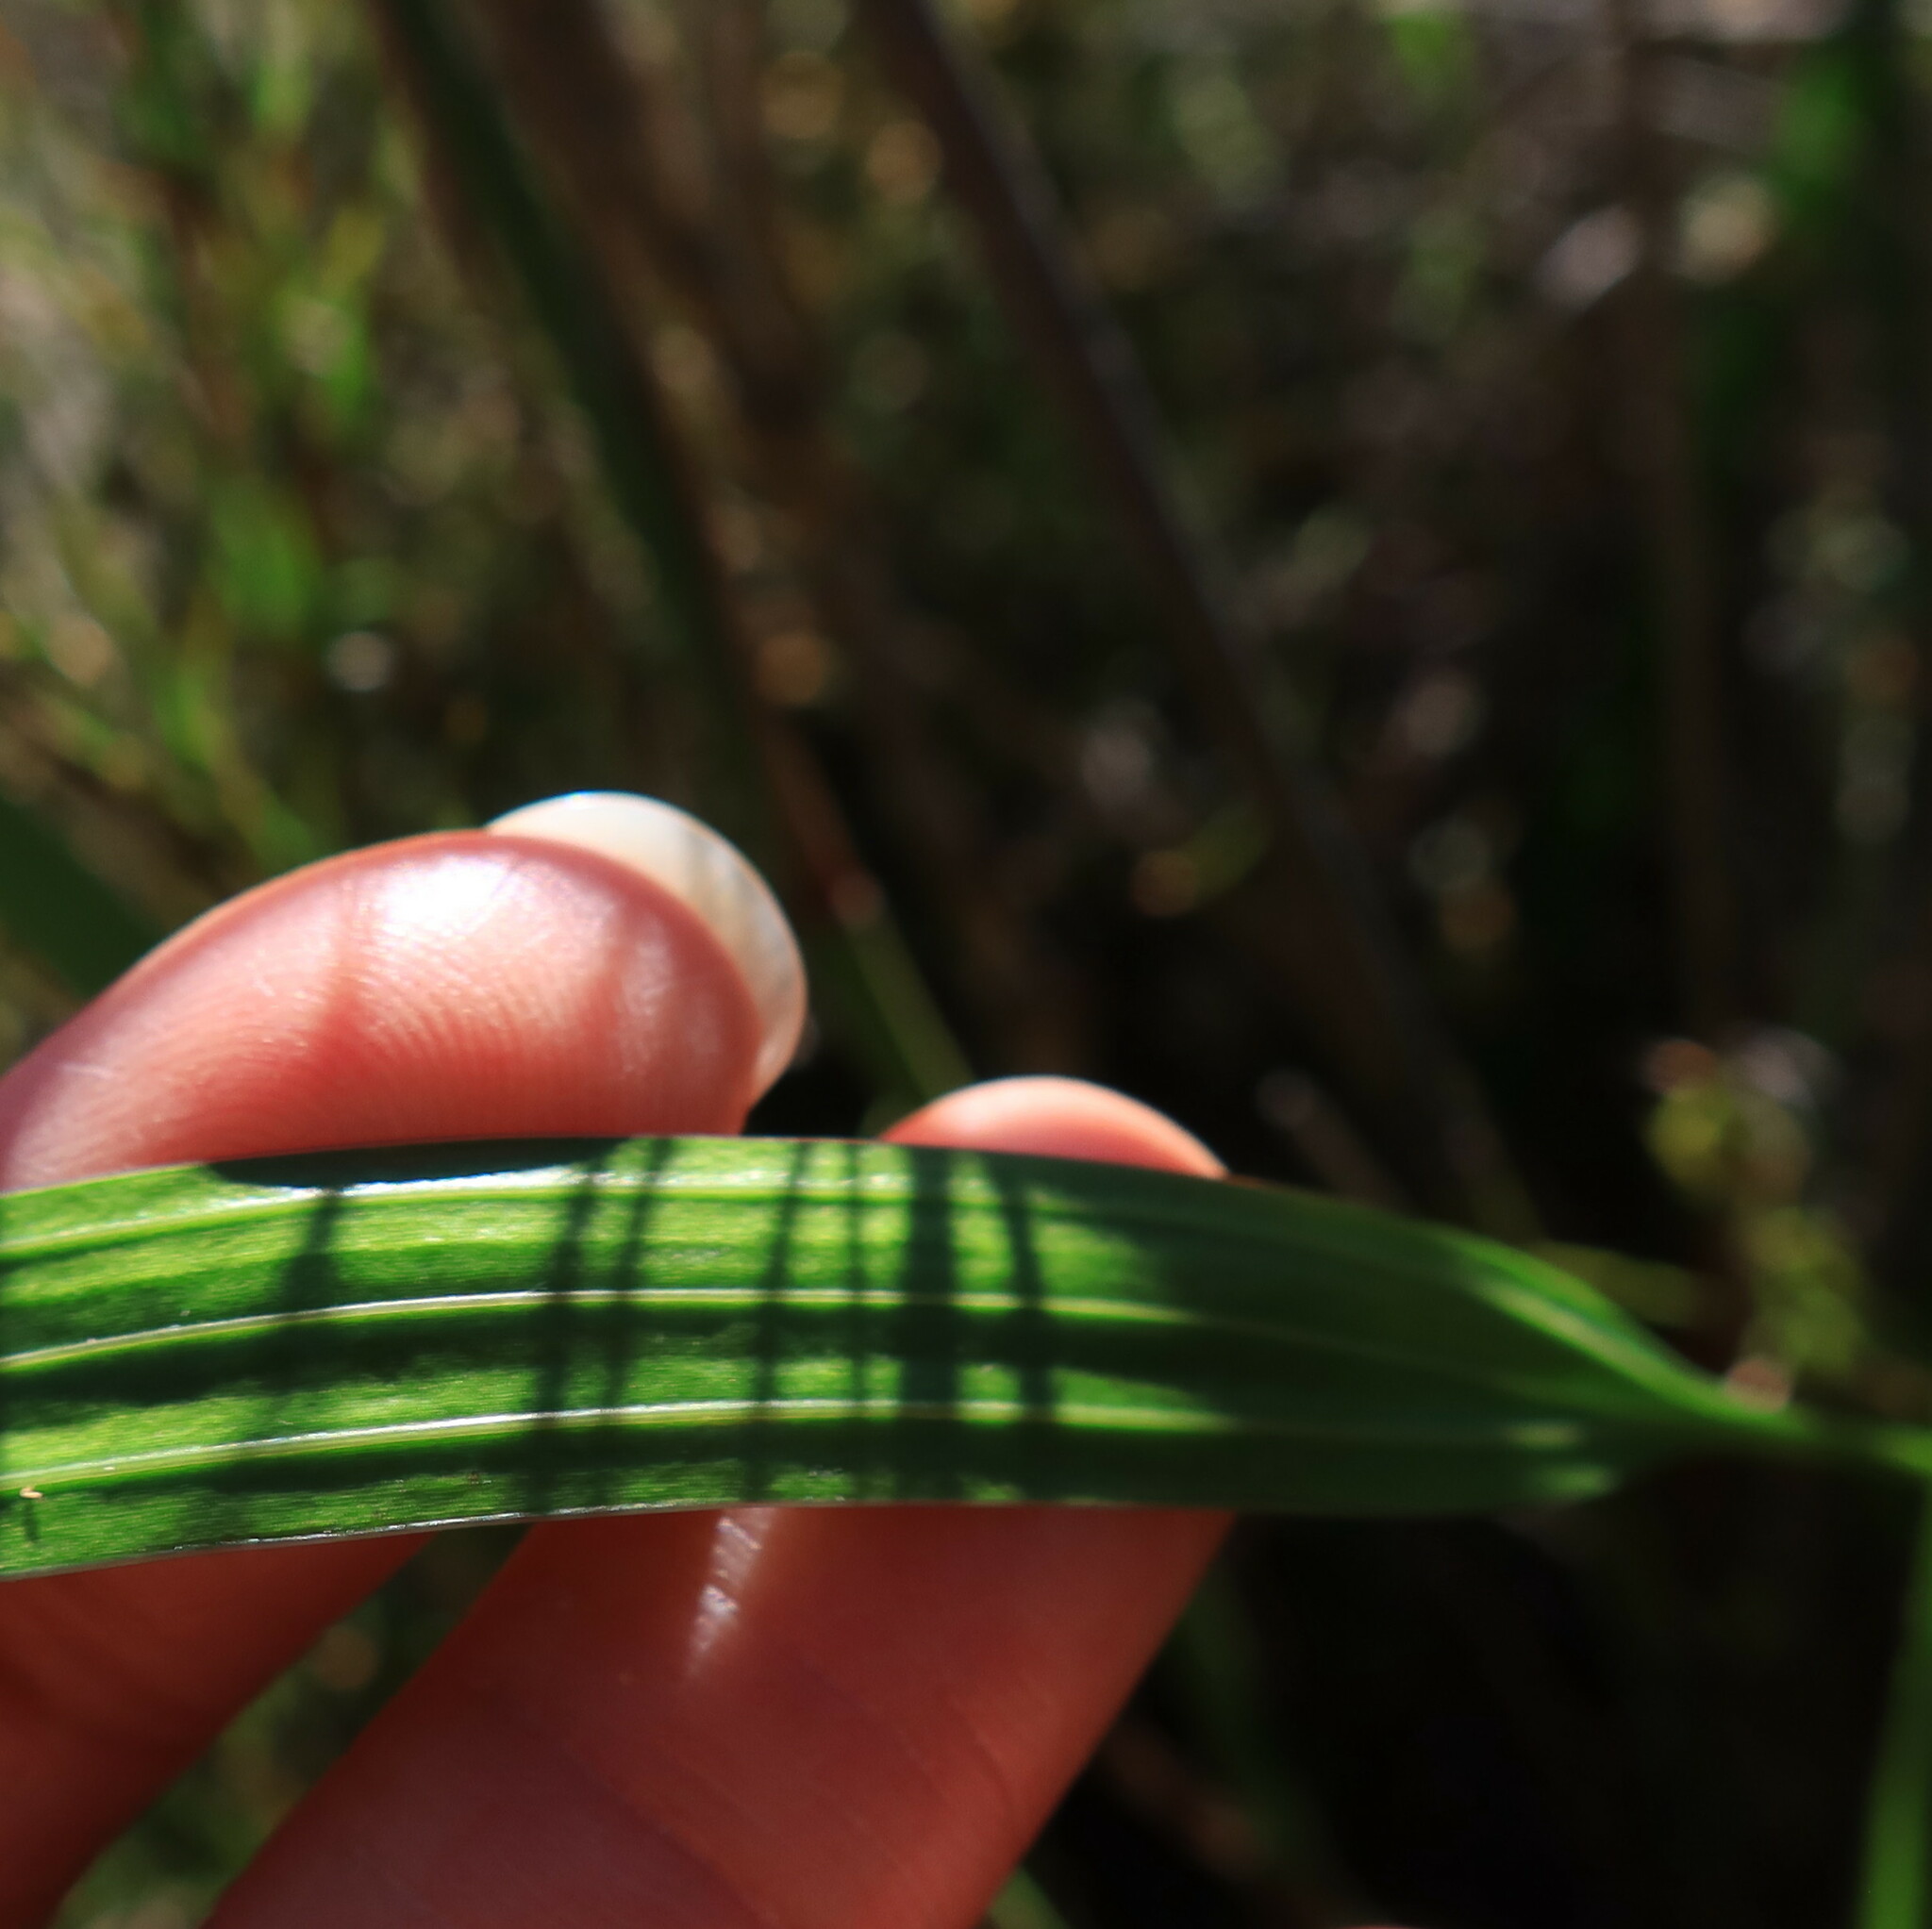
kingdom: Plantae
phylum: Tracheophyta
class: Liliopsida
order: Asparagales
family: Iridaceae
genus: Tritoniopsis
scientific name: Tritoniopsis triticea
